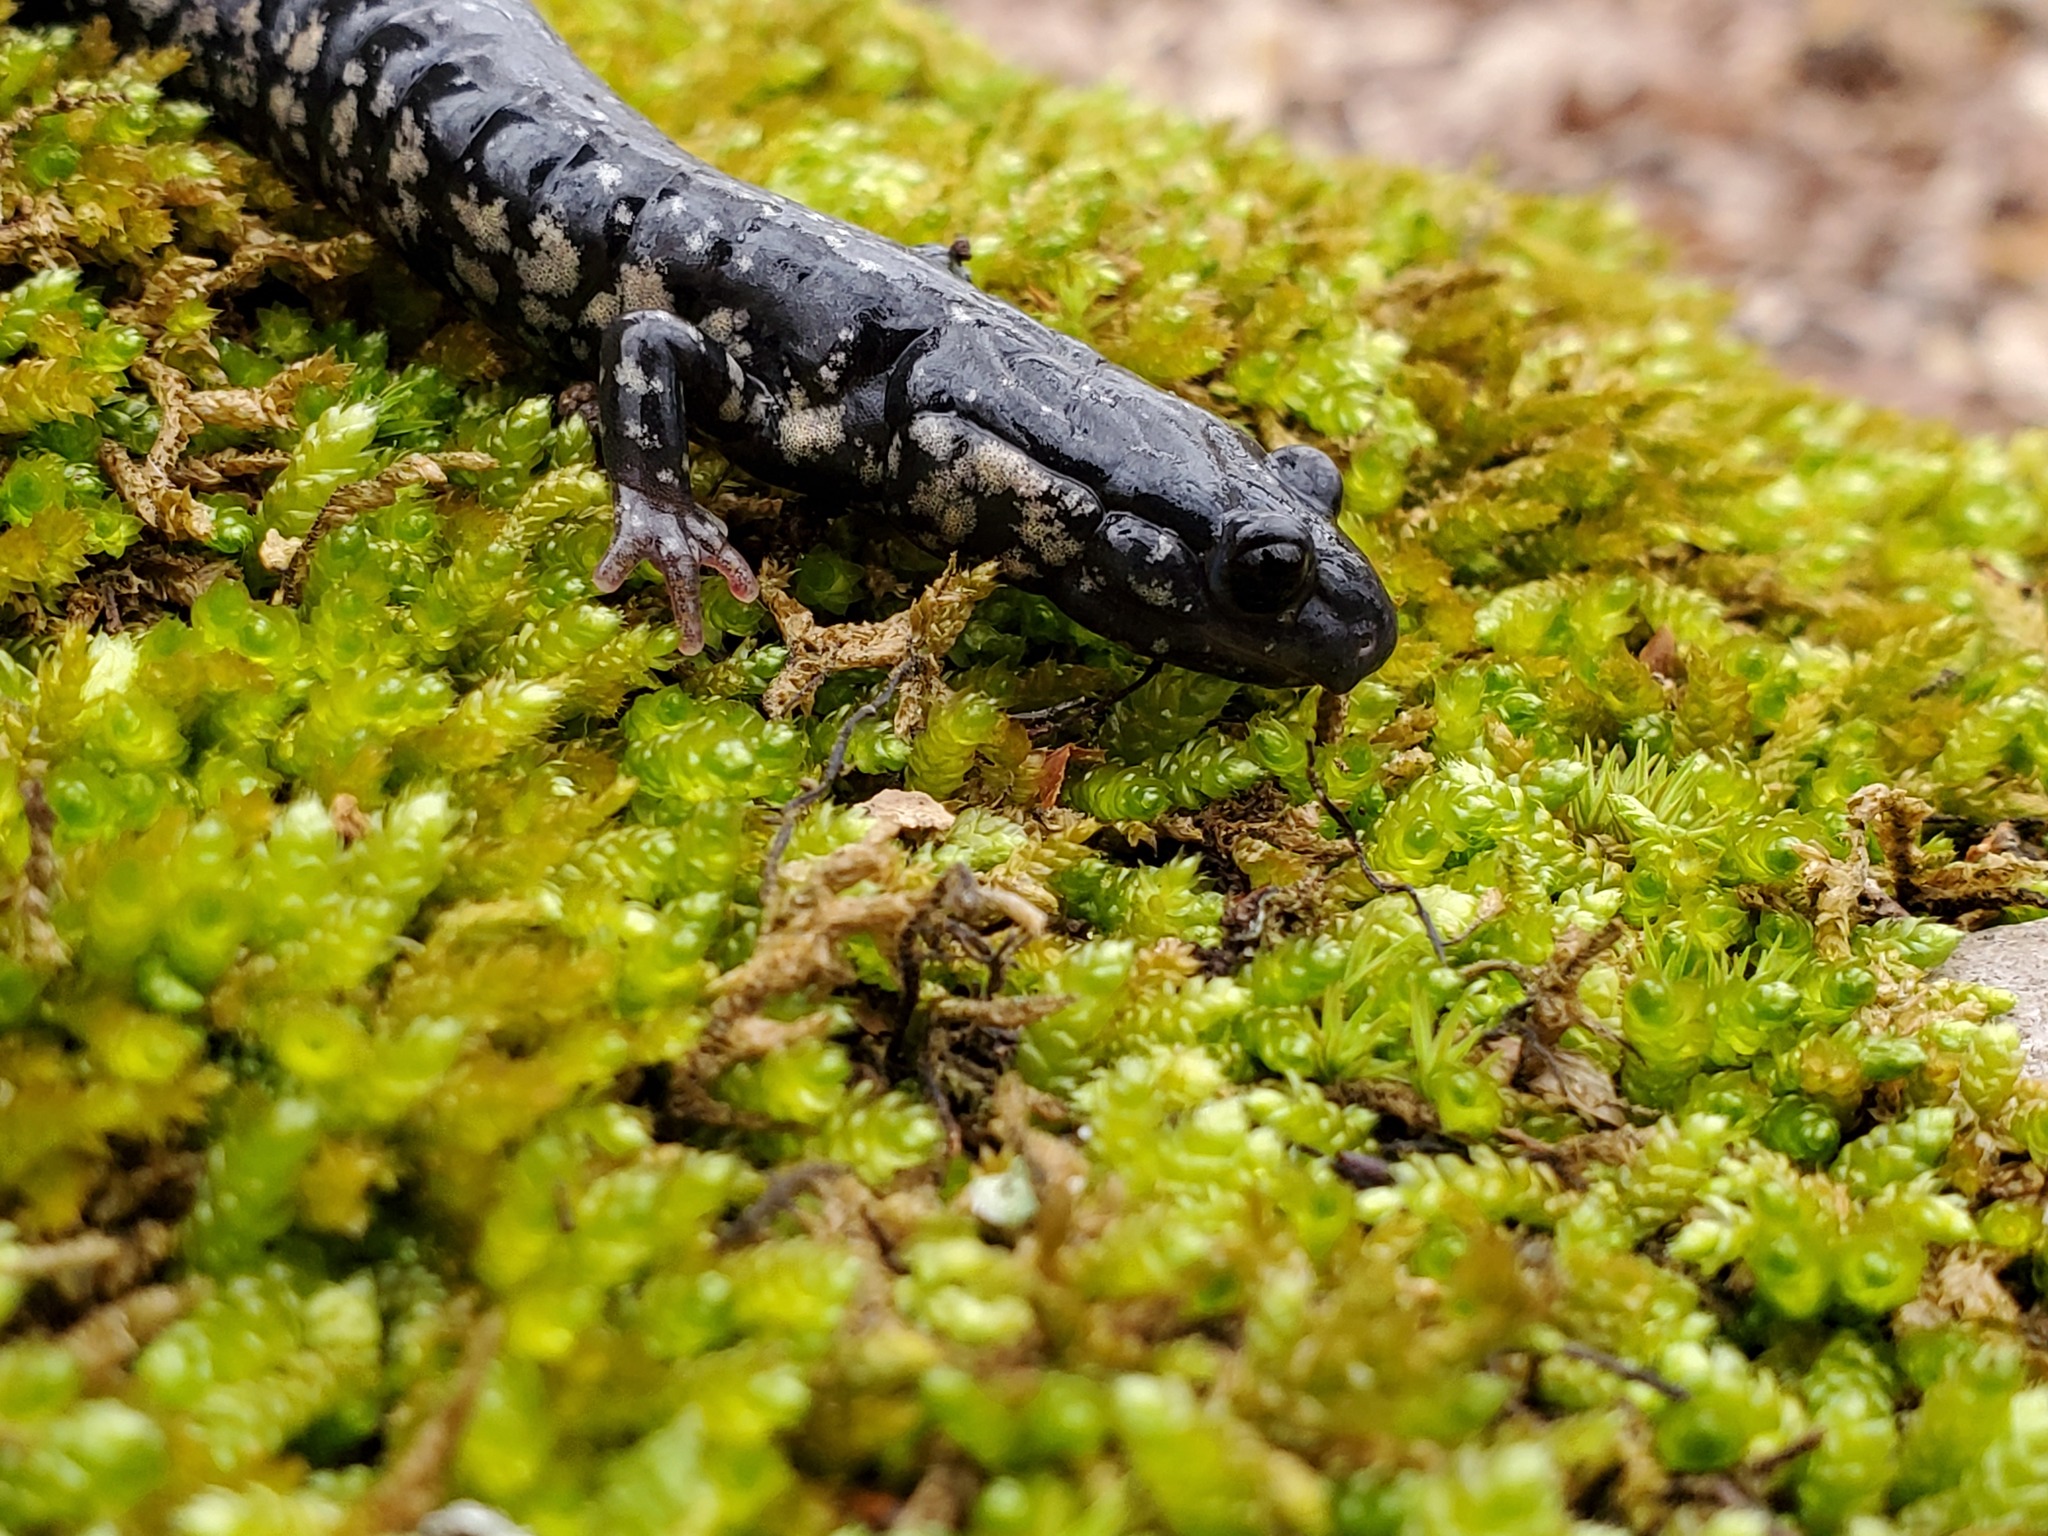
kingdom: Animalia
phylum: Chordata
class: Amphibia
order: Caudata
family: Plethodontidae
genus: Plethodon
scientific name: Plethodon glutinosus
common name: Northern slimy salamander
